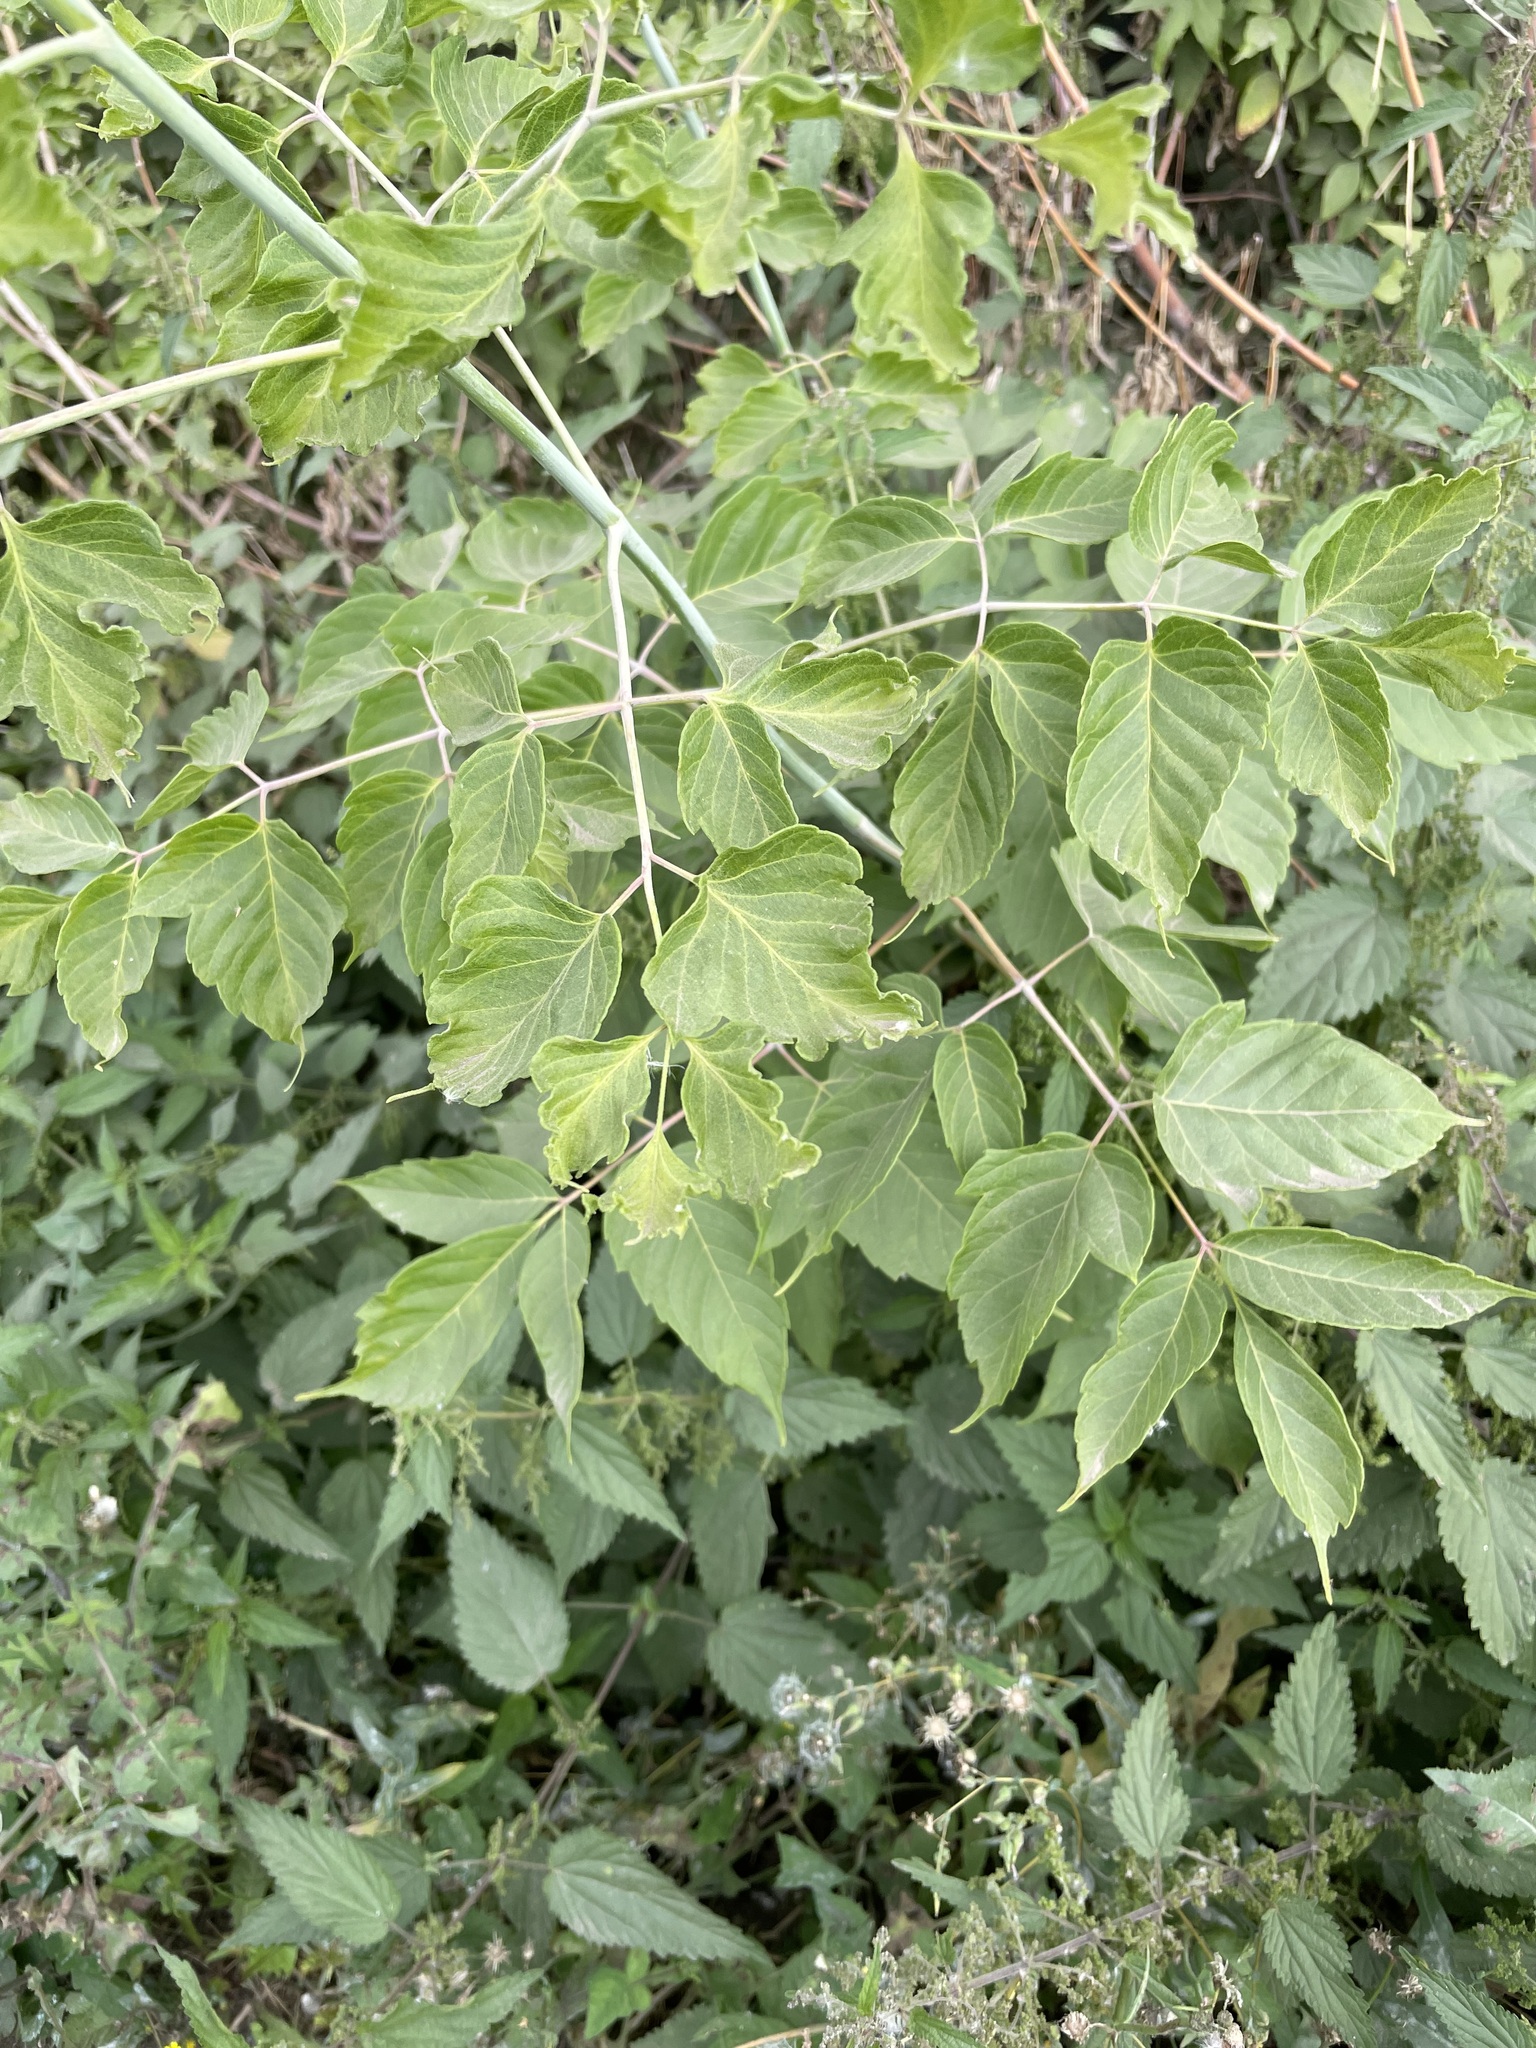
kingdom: Plantae
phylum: Tracheophyta
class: Magnoliopsida
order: Sapindales
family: Sapindaceae
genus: Acer
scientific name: Acer negundo
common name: Ashleaf maple
